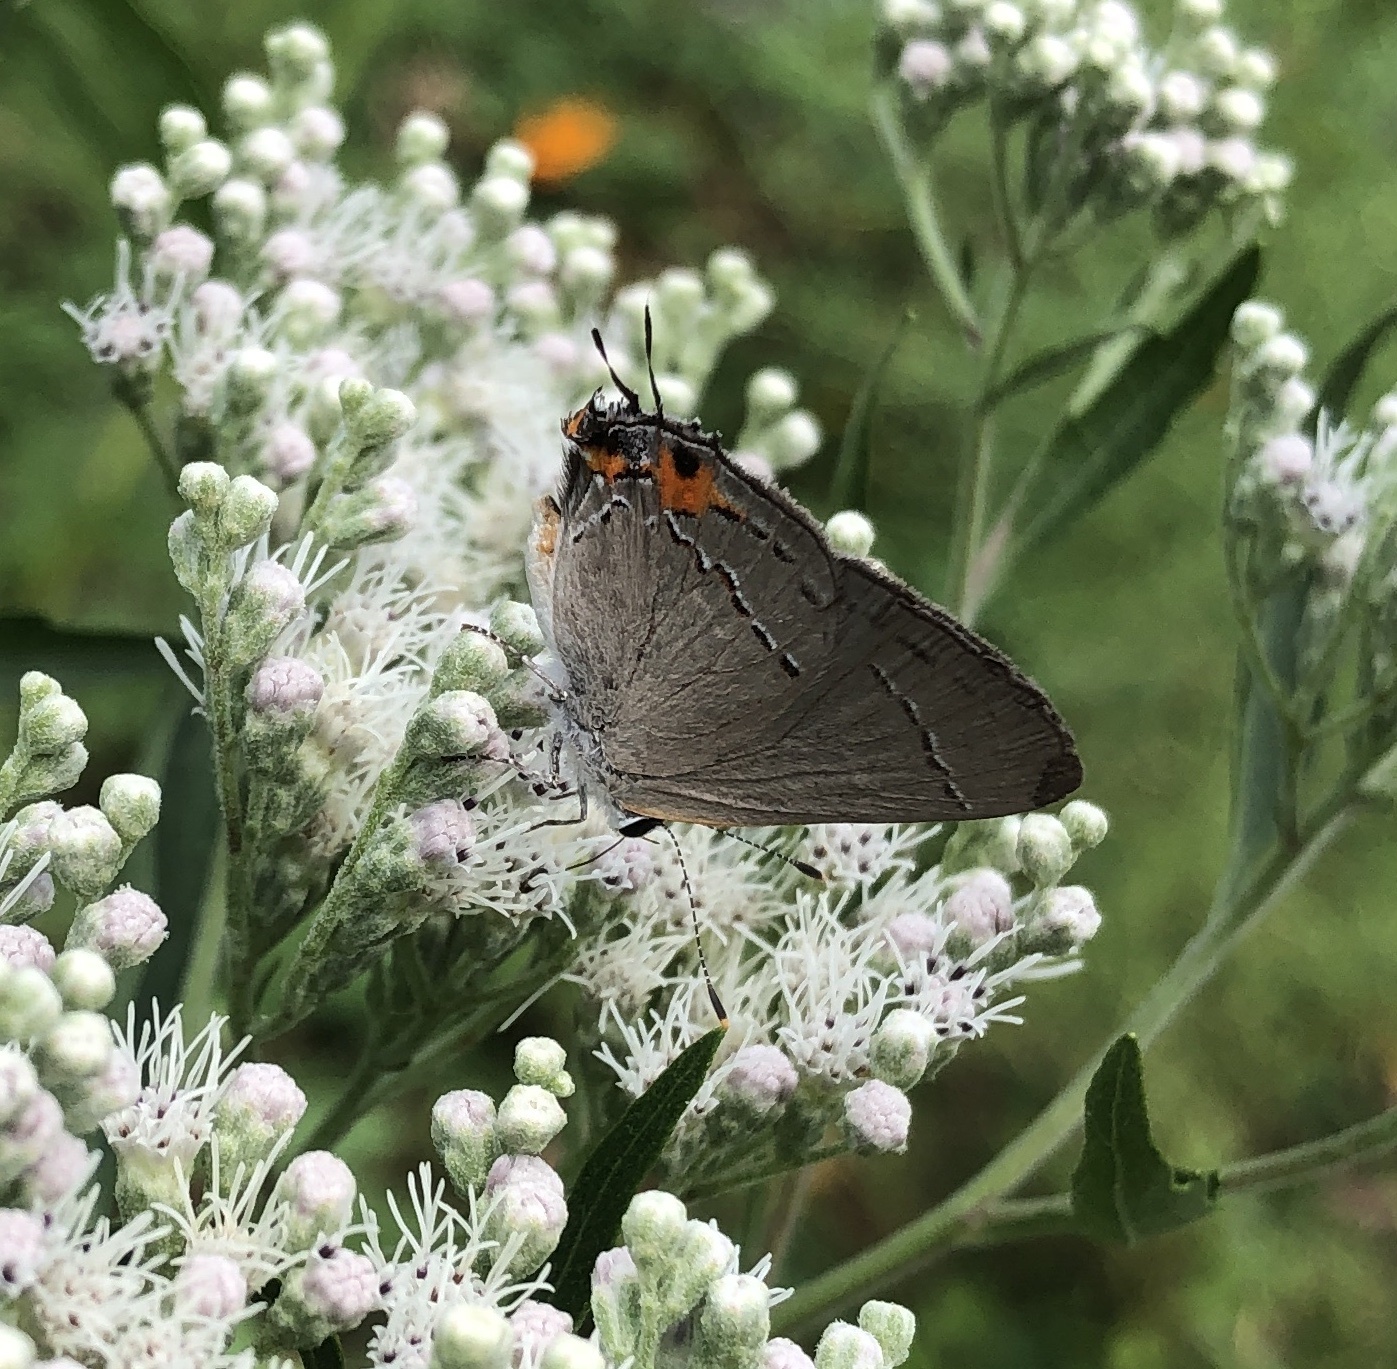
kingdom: Animalia
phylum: Arthropoda
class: Insecta
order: Lepidoptera
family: Lycaenidae
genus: Strymon
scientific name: Strymon melinus
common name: Gray hairstreak
